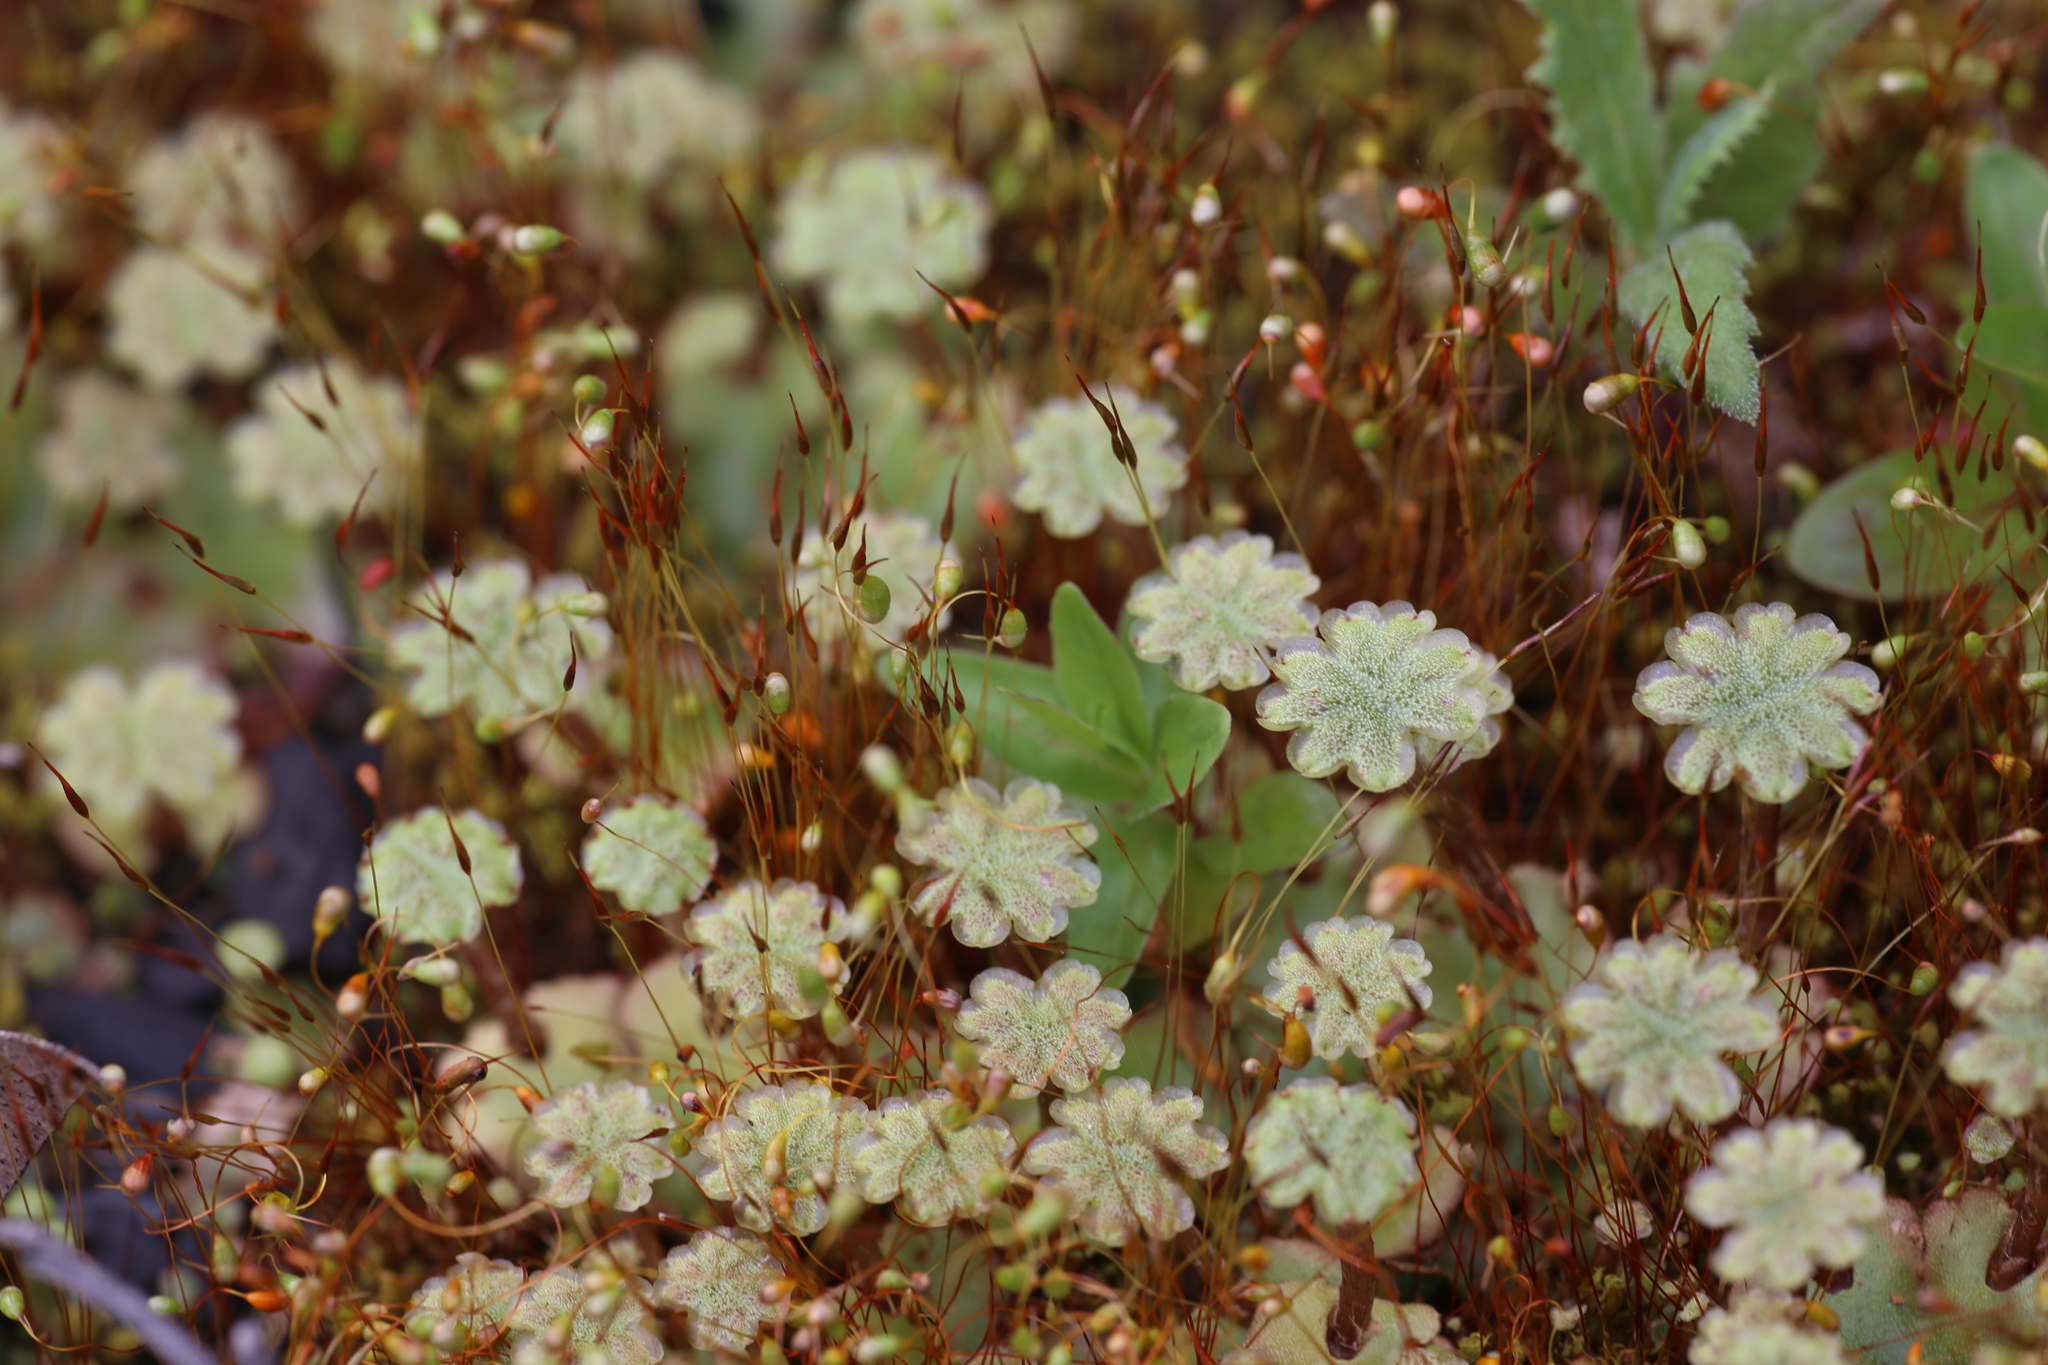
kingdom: Plantae
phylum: Marchantiophyta
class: Marchantiopsida
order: Marchantiales
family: Marchantiaceae
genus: Marchantia
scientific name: Marchantia berteroana
